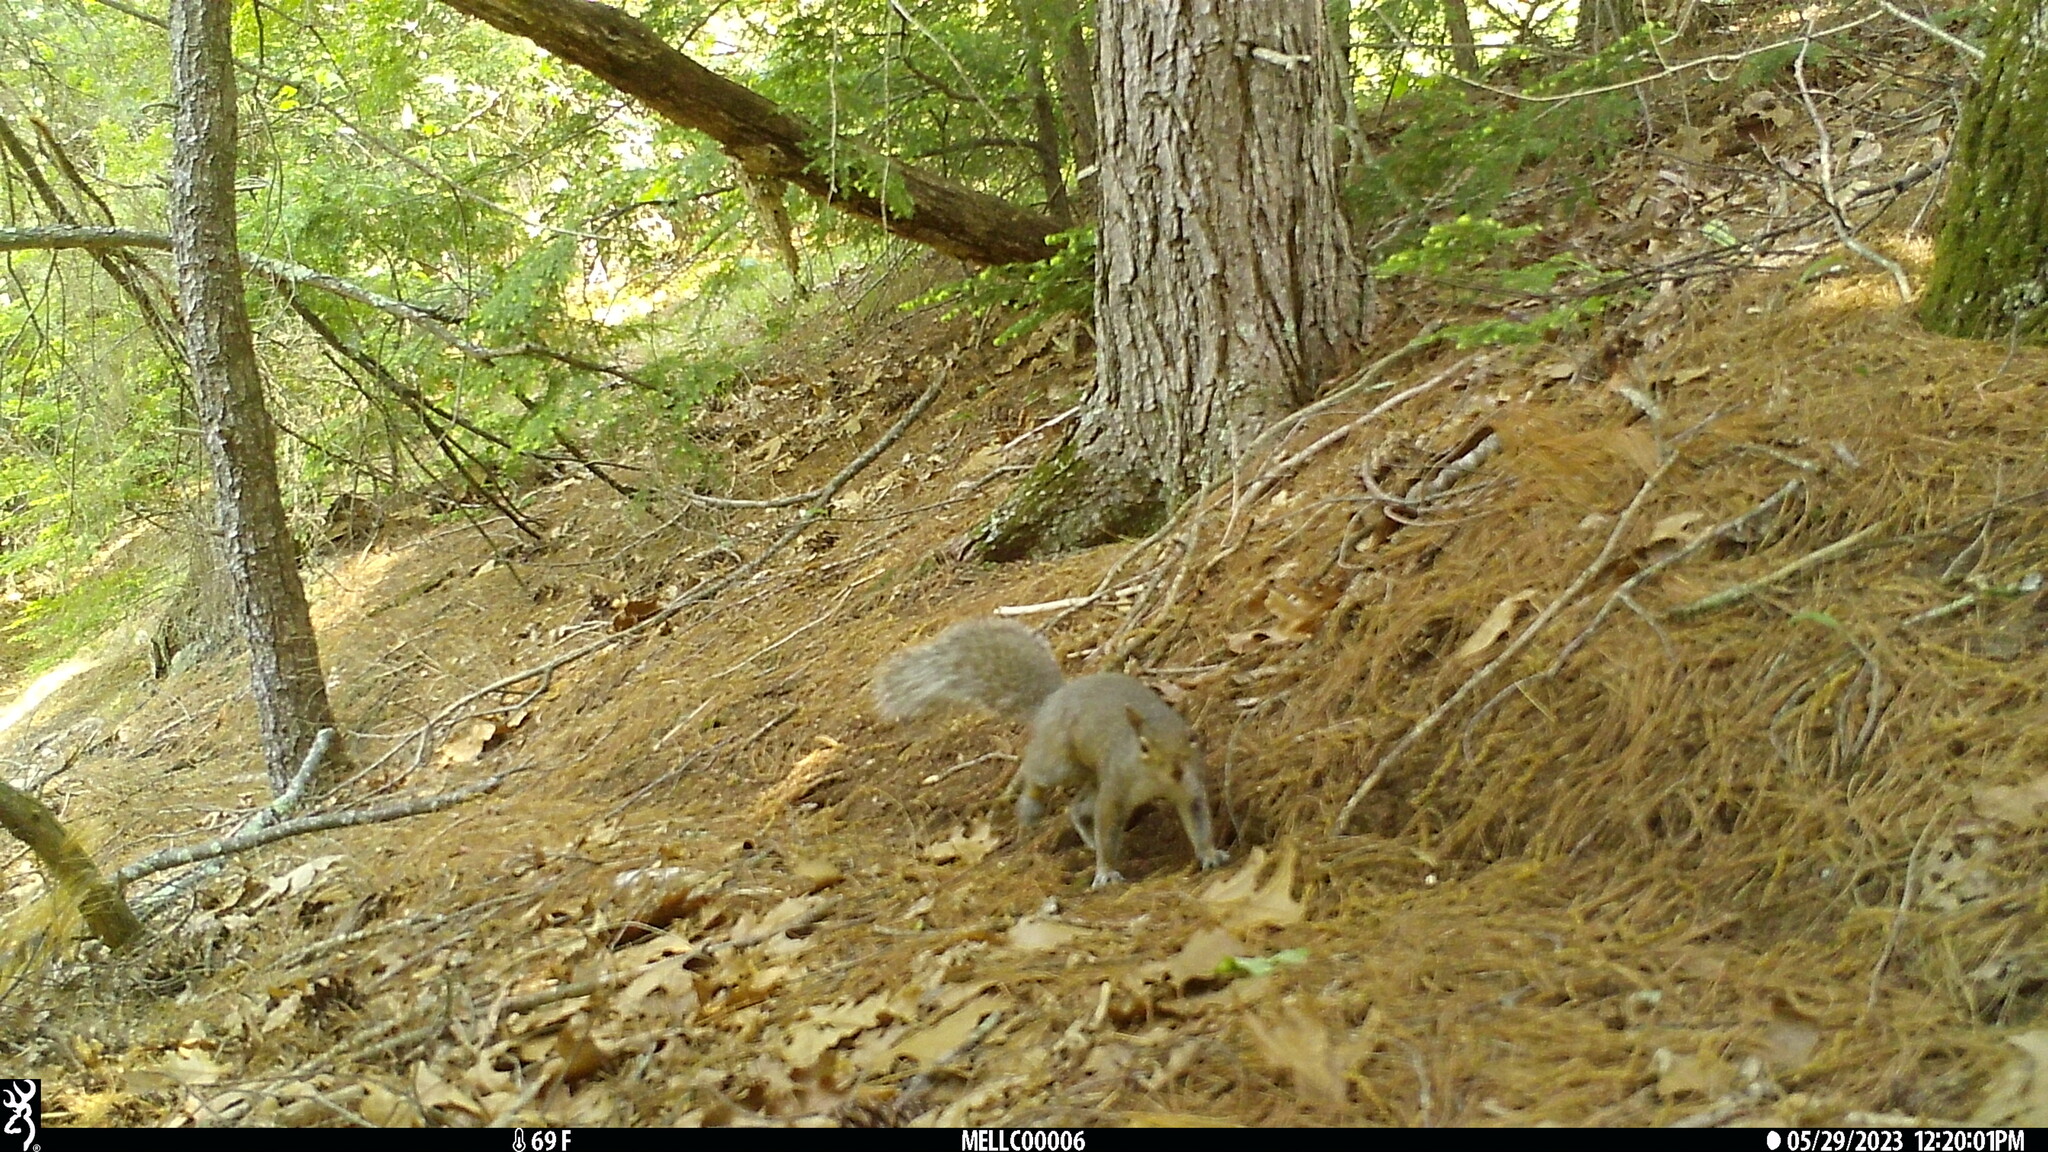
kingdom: Animalia
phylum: Chordata
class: Mammalia
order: Rodentia
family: Sciuridae
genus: Sciurus
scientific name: Sciurus carolinensis
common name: Eastern gray squirrel
